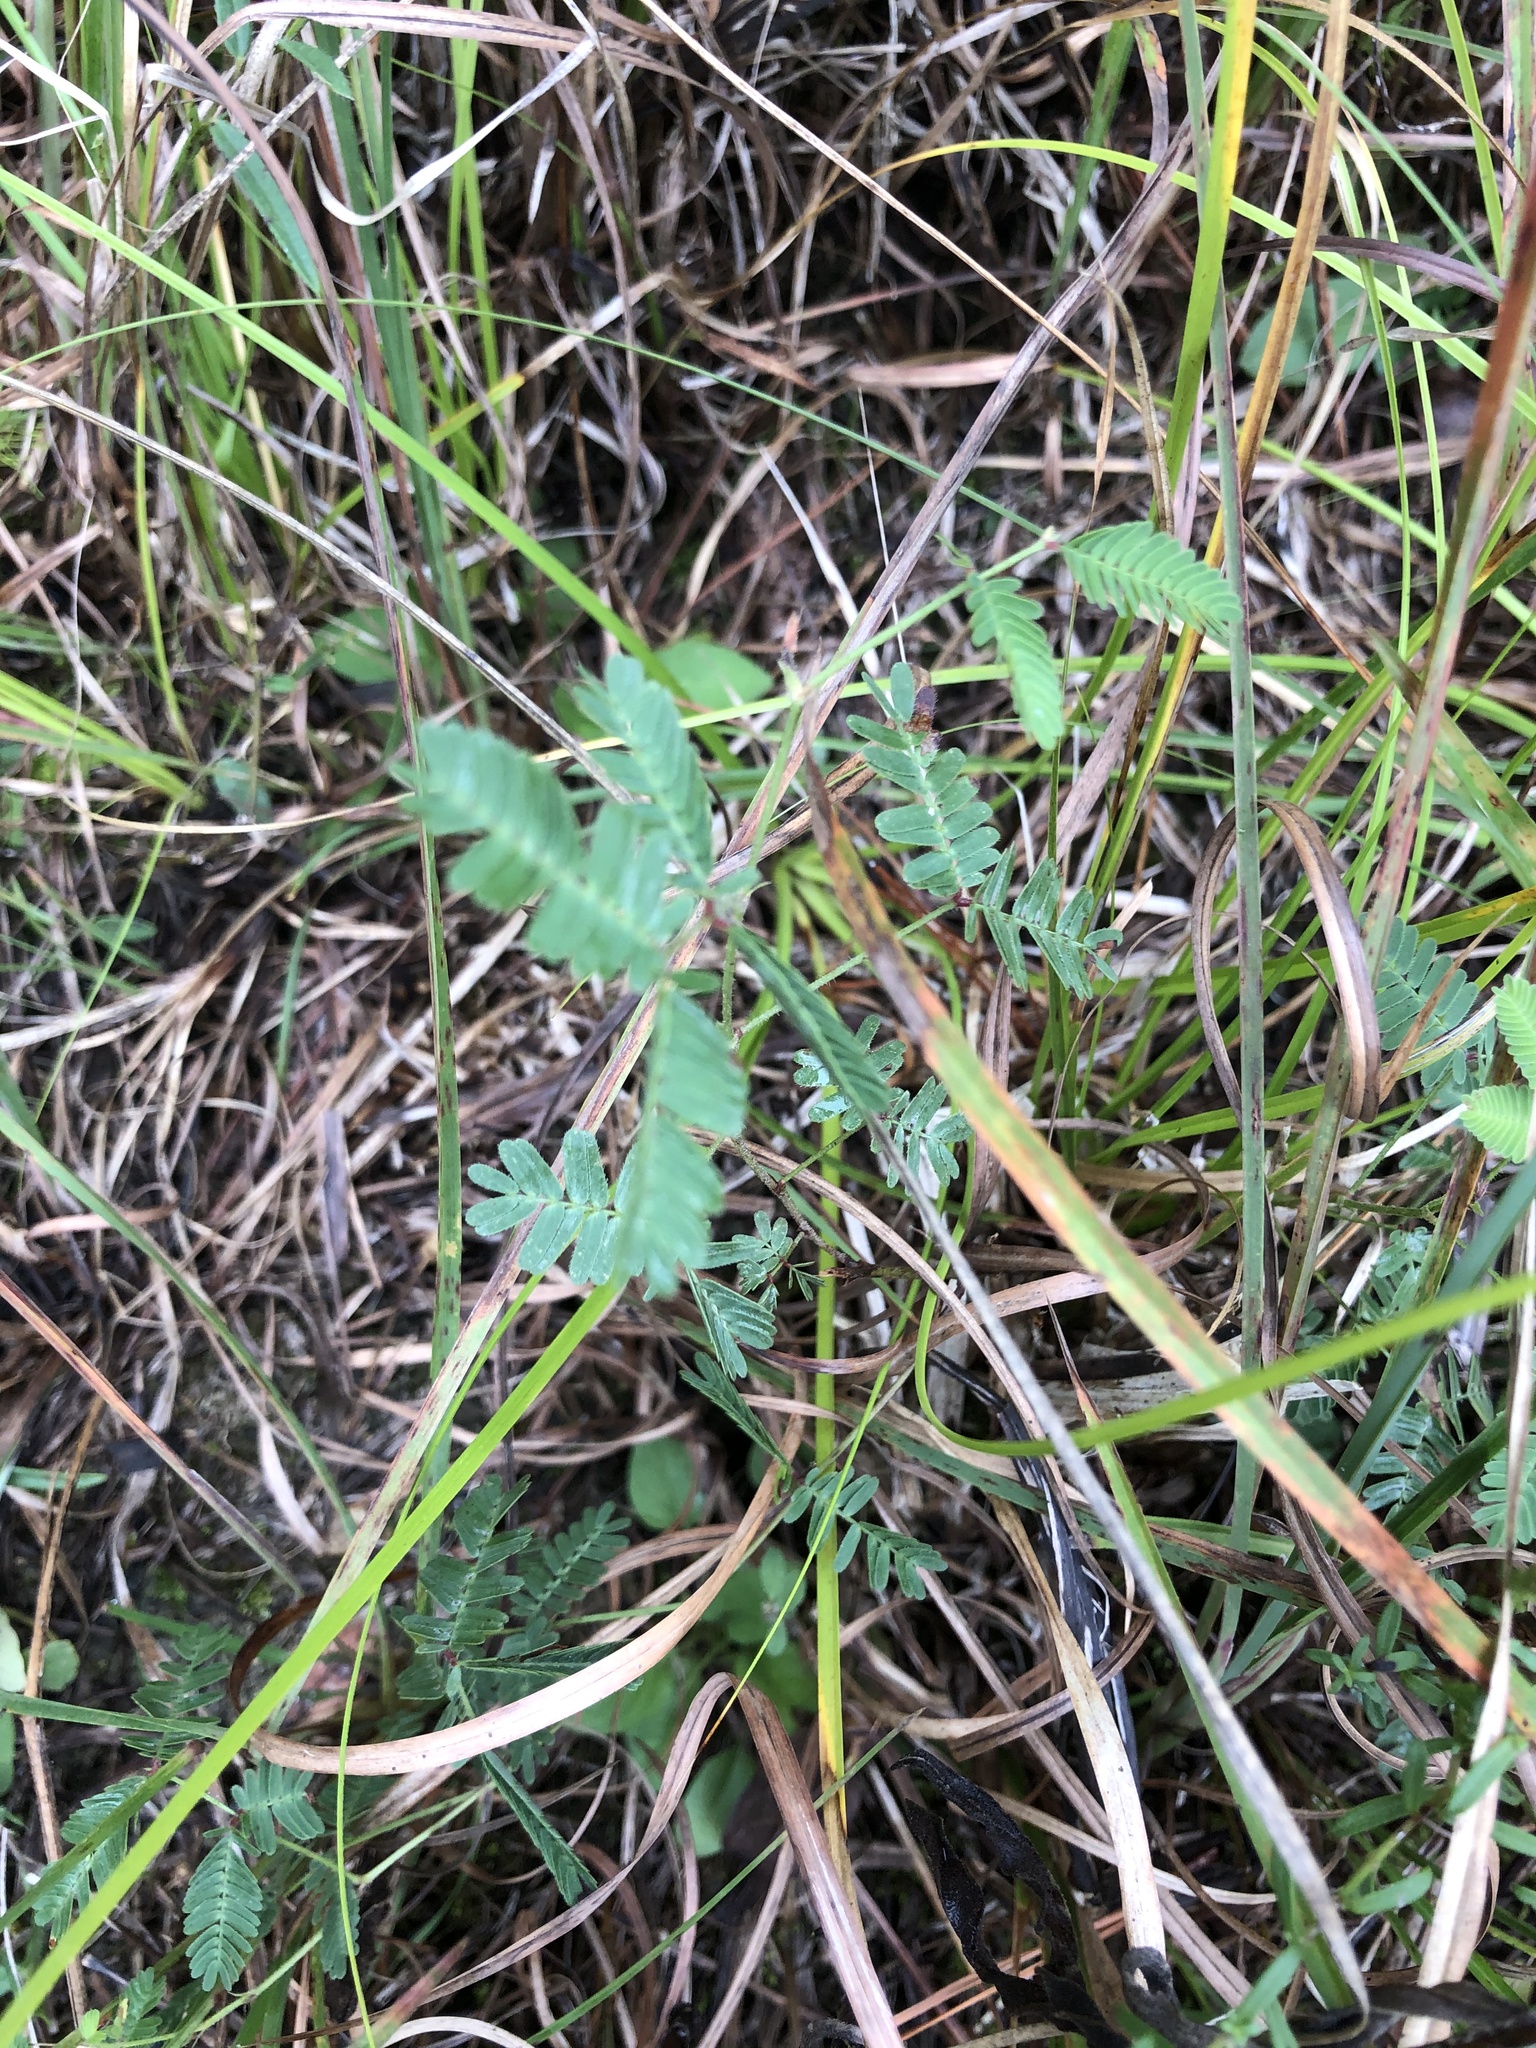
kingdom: Plantae
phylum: Tracheophyta
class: Magnoliopsida
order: Fabales
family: Fabaceae
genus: Neptunia
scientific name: Neptunia lutea
